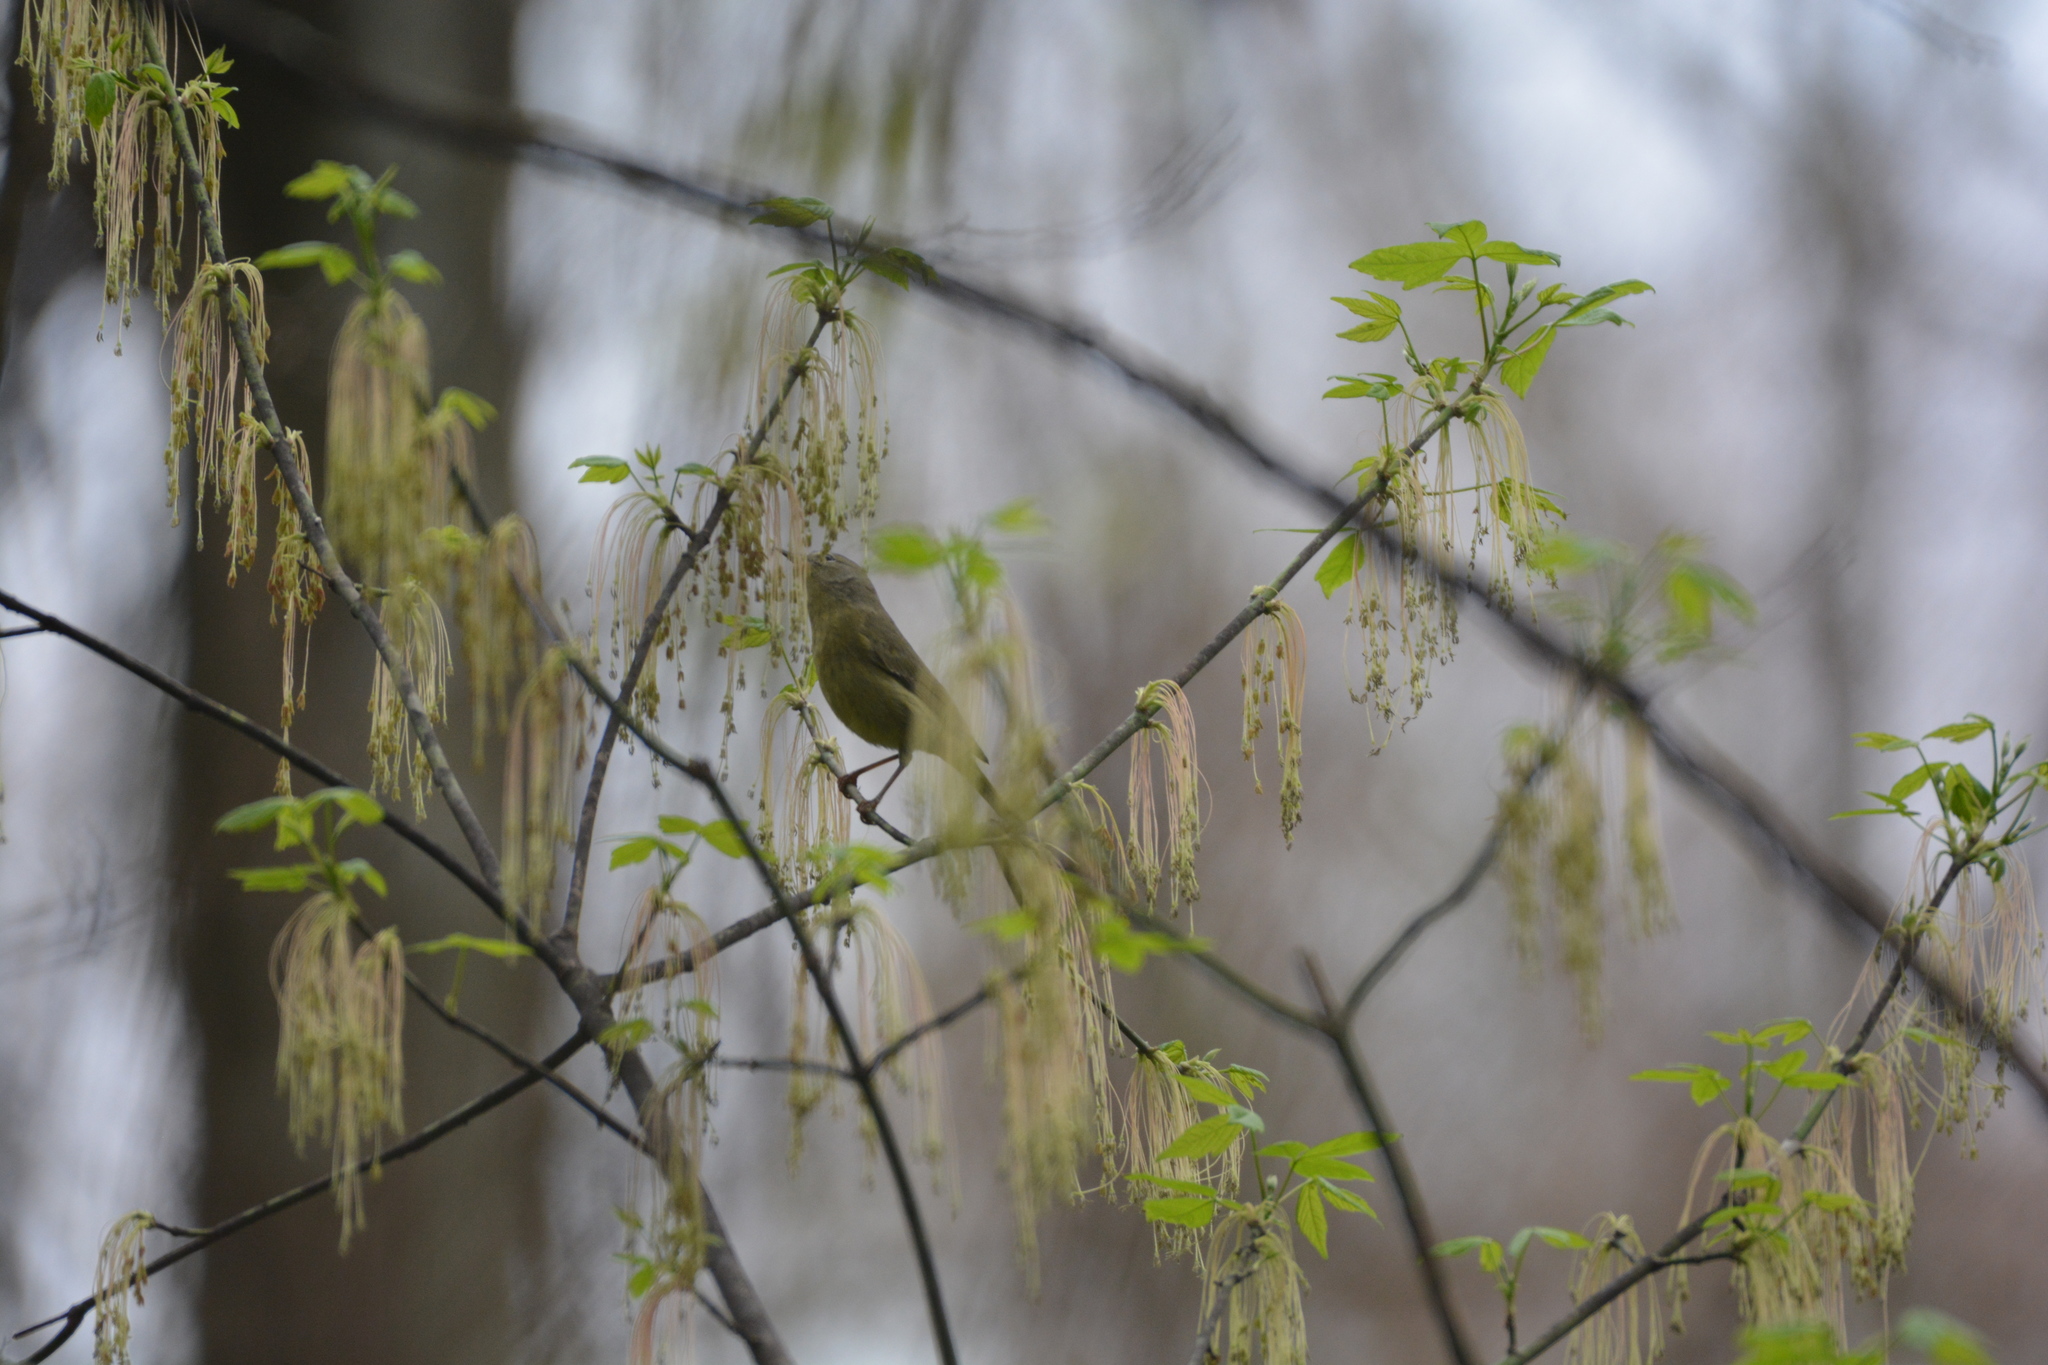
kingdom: Animalia
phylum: Chordata
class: Aves
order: Passeriformes
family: Parulidae
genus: Leiothlypis
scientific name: Leiothlypis celata
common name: Orange-crowned warbler
